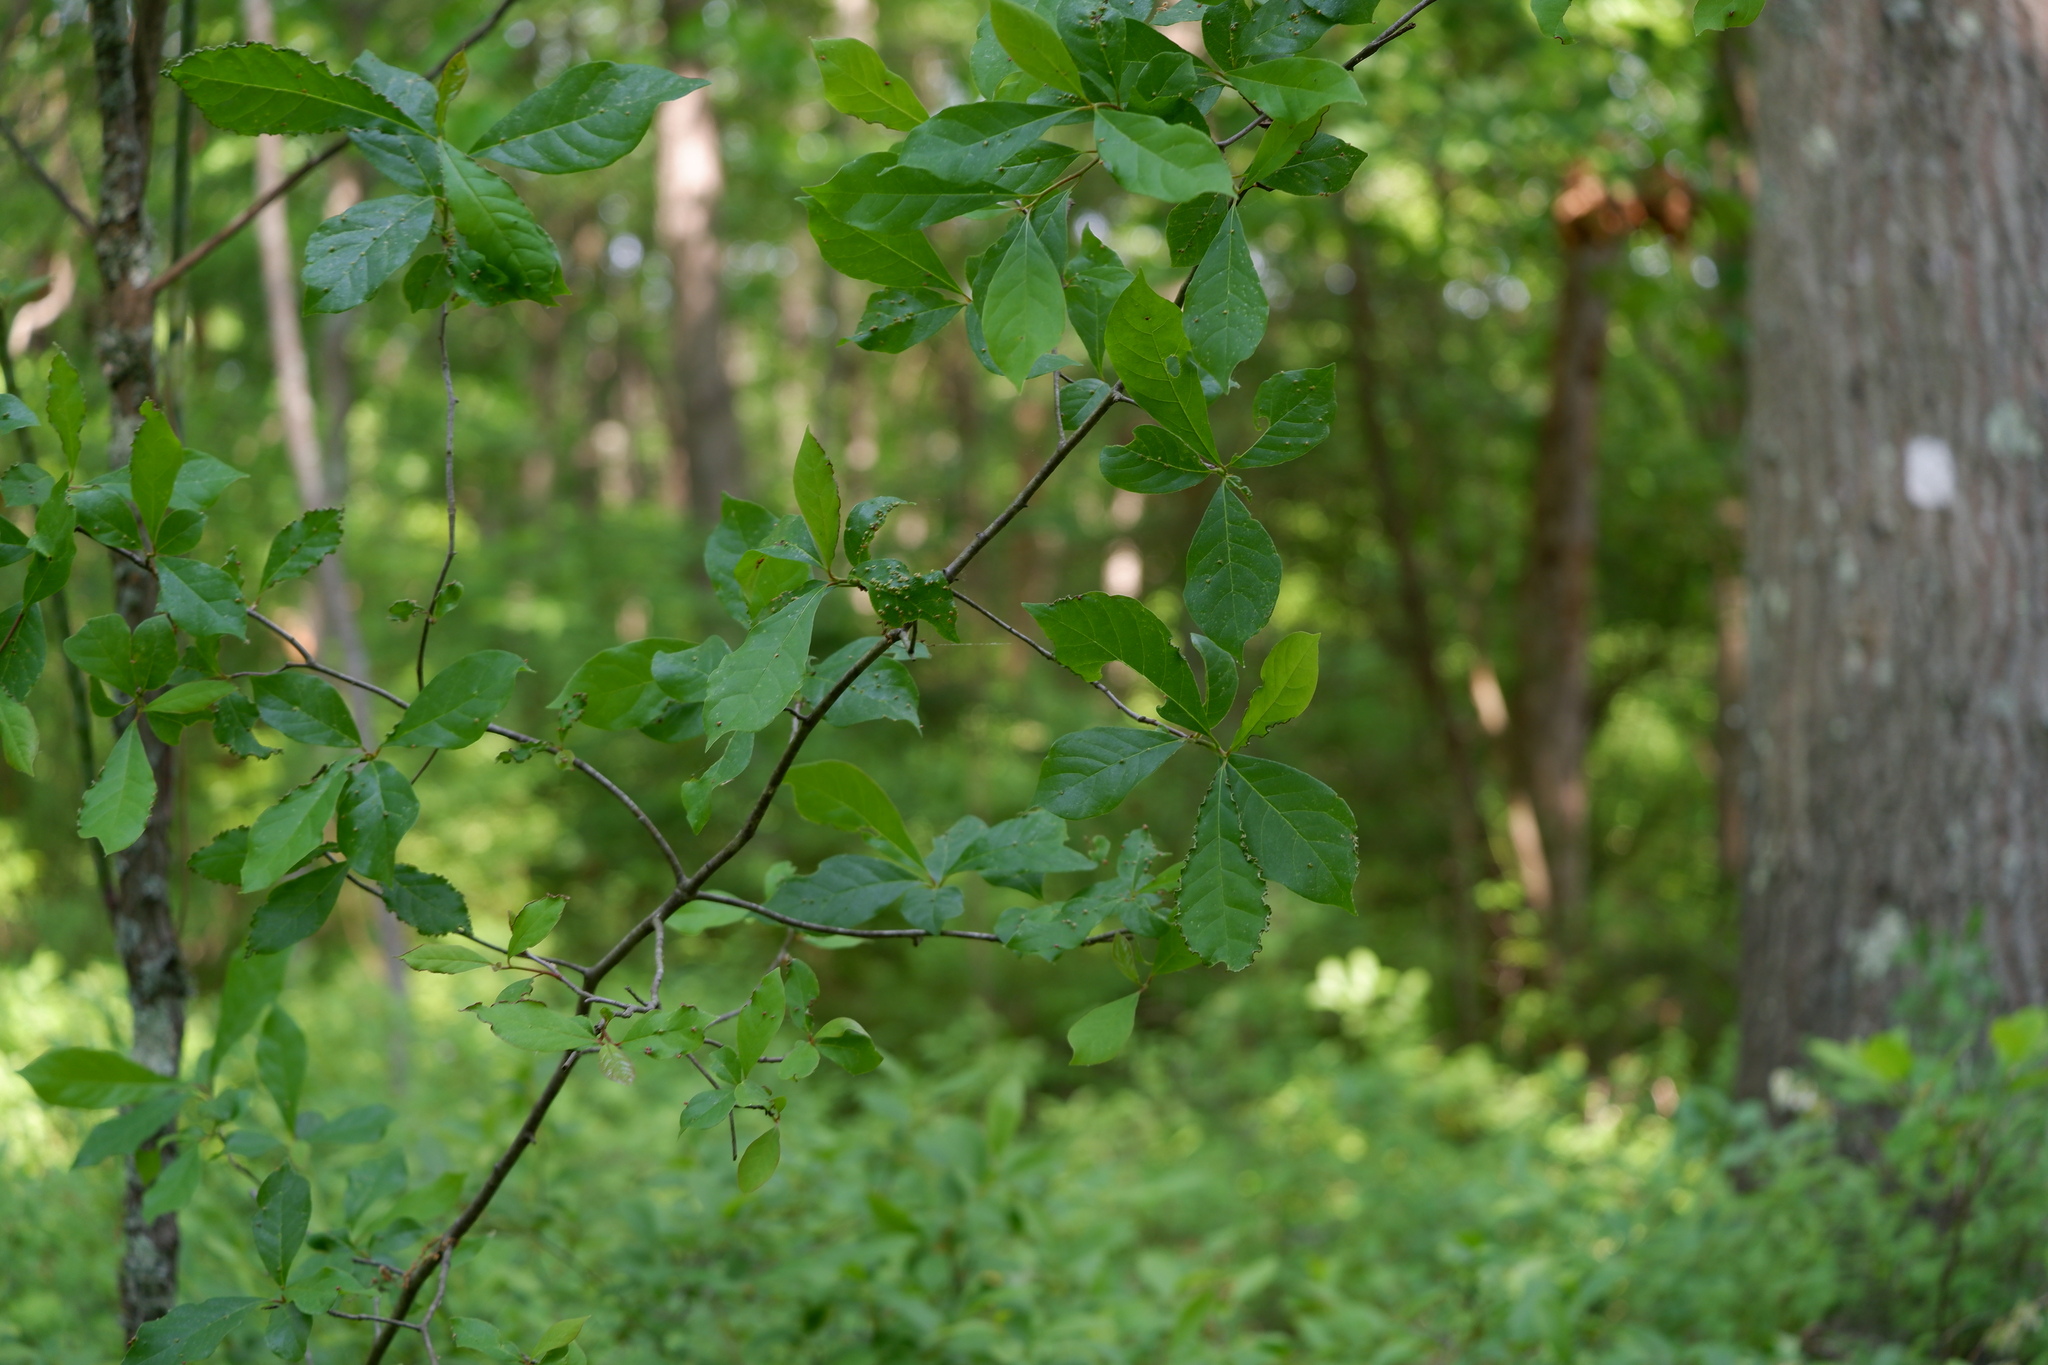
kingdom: Animalia
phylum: Arthropoda
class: Arachnida
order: Trombidiformes
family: Eriophyidae
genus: Aceria
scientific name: Aceria
